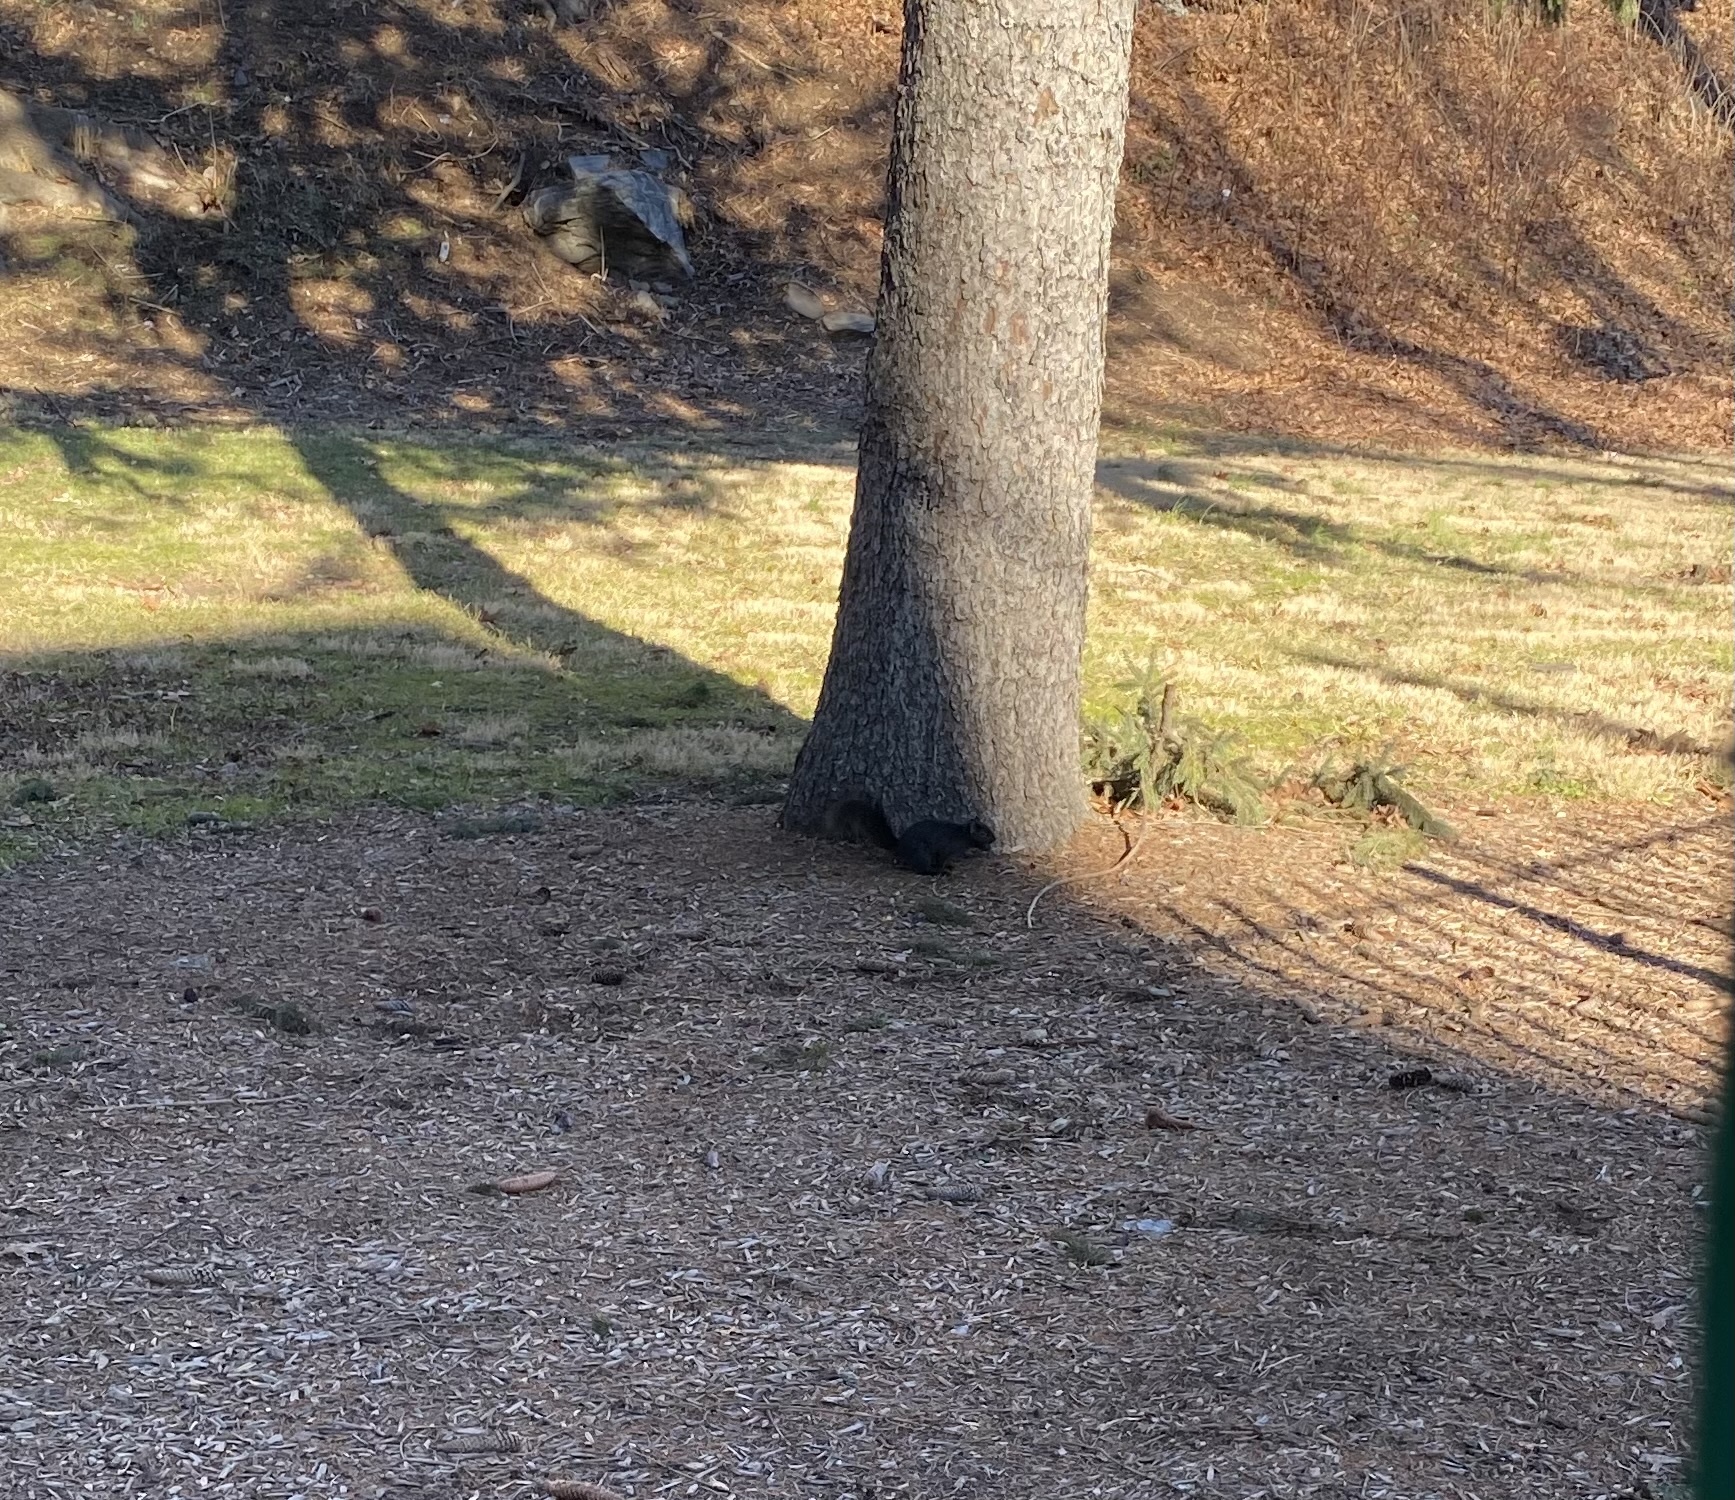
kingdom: Animalia
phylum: Chordata
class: Mammalia
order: Rodentia
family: Sciuridae
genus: Sciurus
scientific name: Sciurus carolinensis
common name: Eastern gray squirrel
